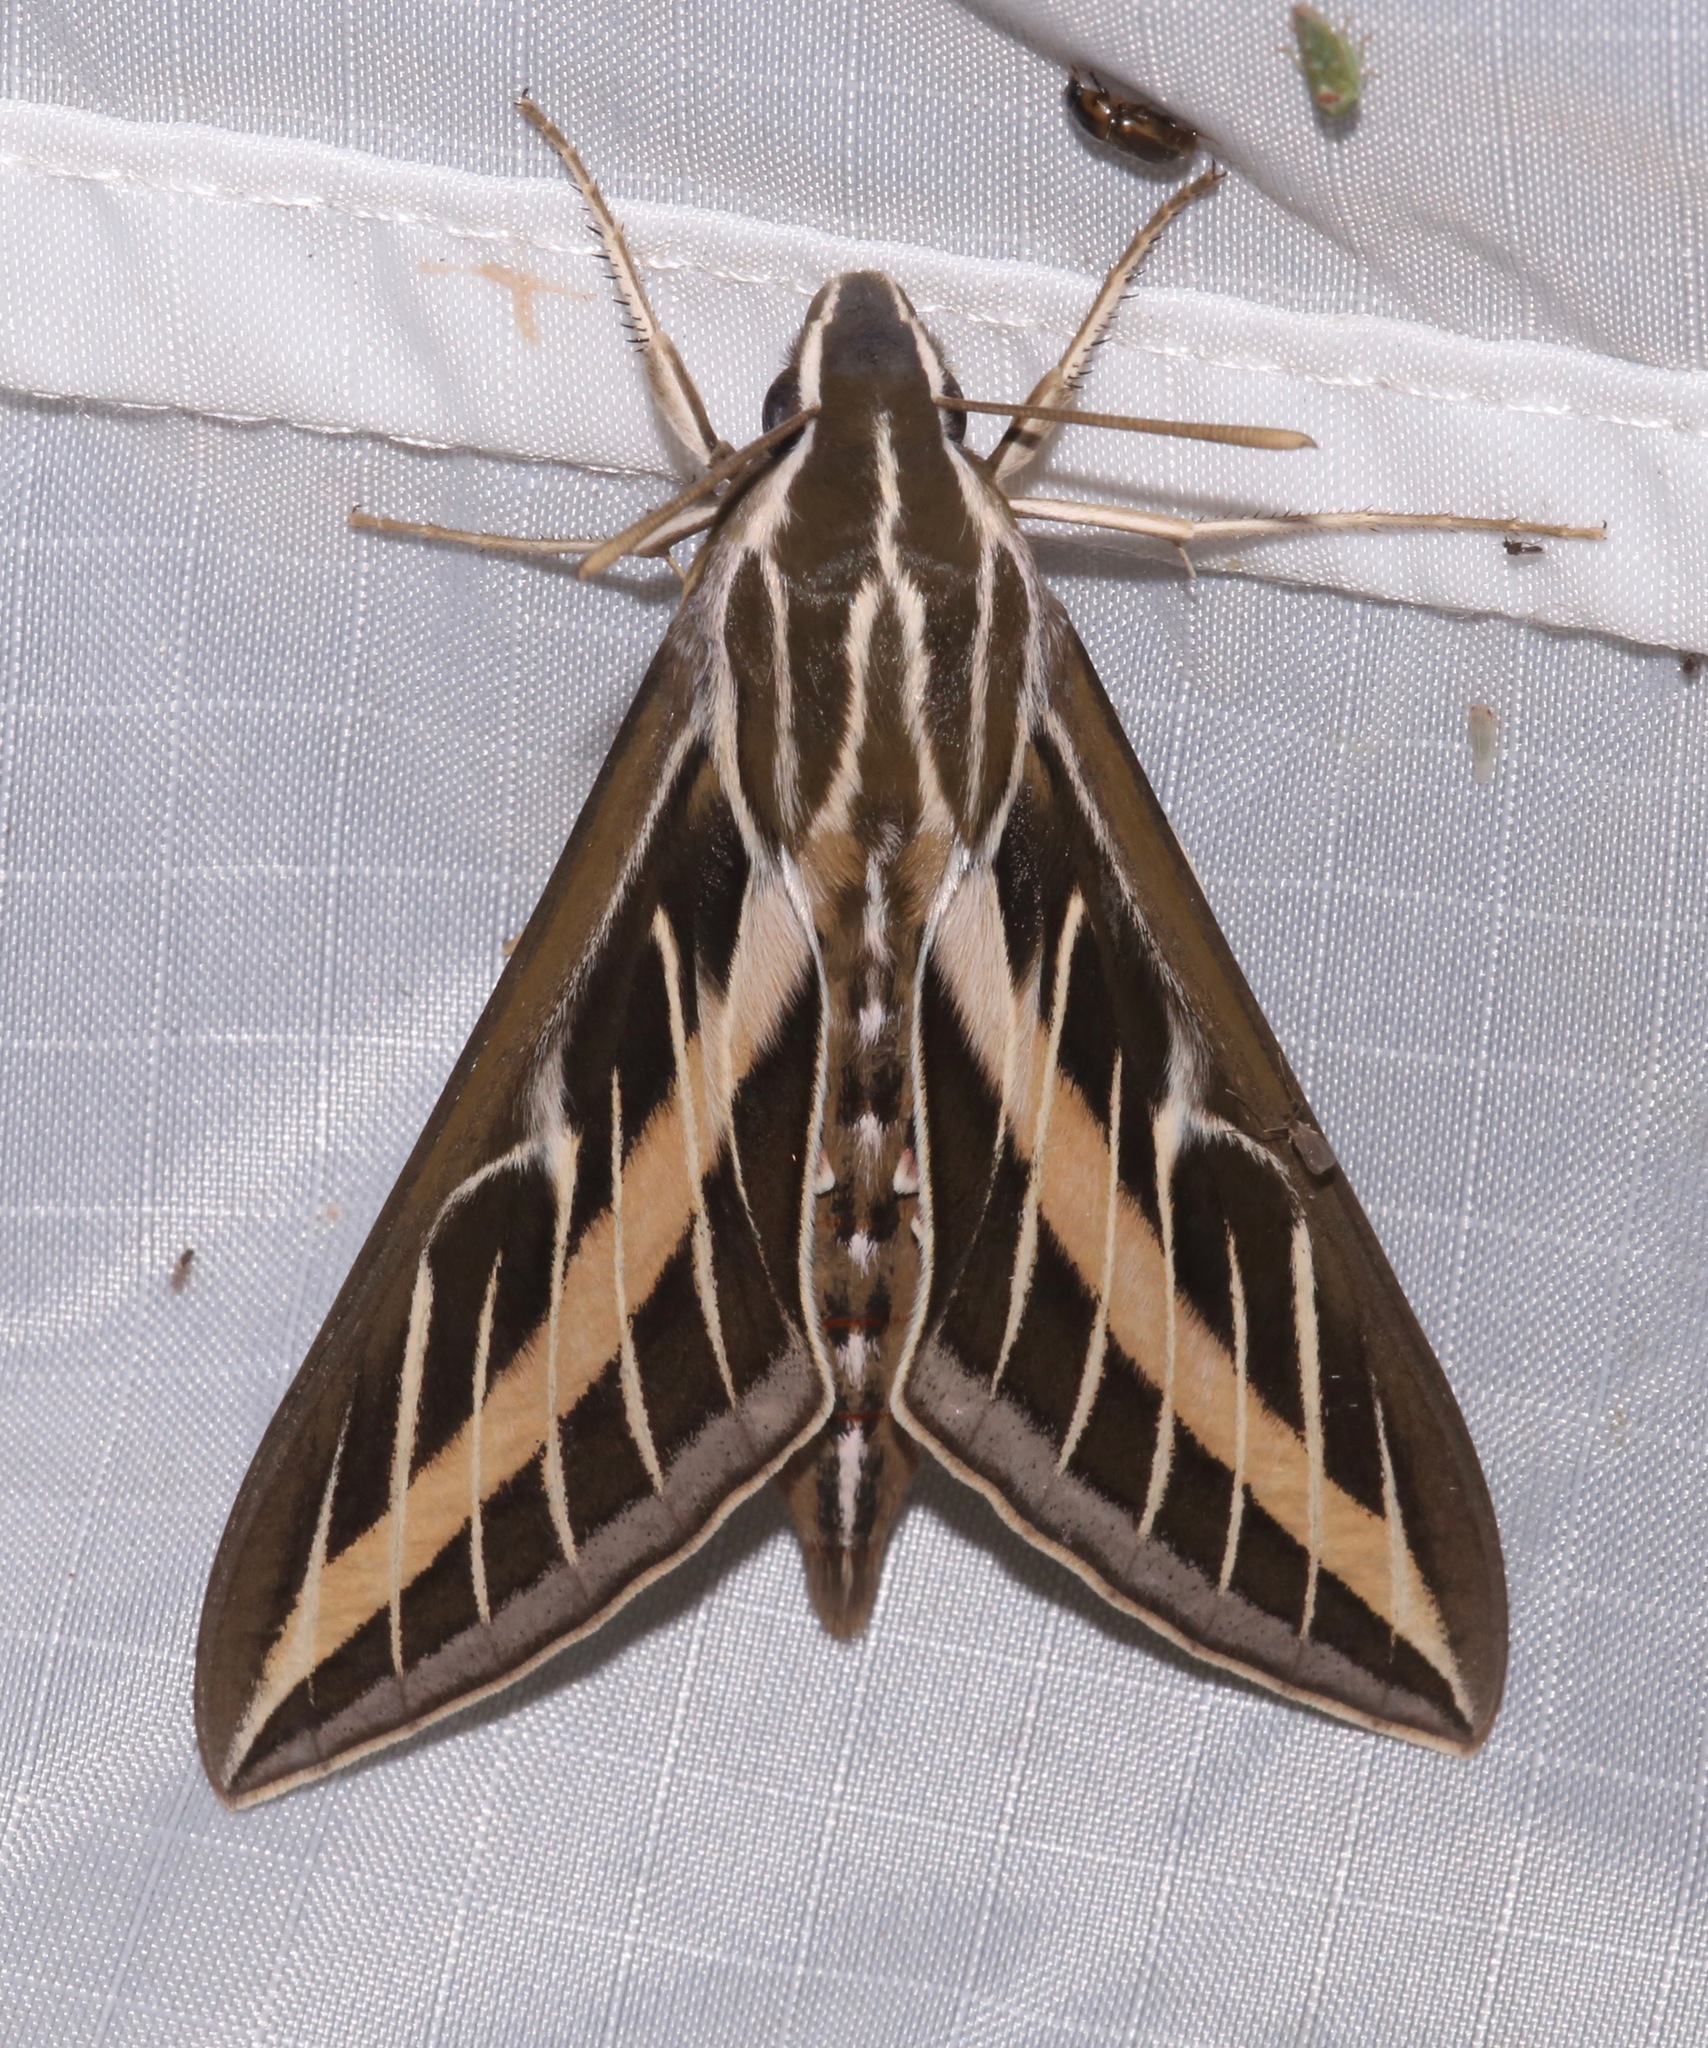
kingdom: Animalia
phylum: Arthropoda
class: Insecta
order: Lepidoptera
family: Sphingidae
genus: Hyles
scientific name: Hyles lineata
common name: White-lined sphinx
